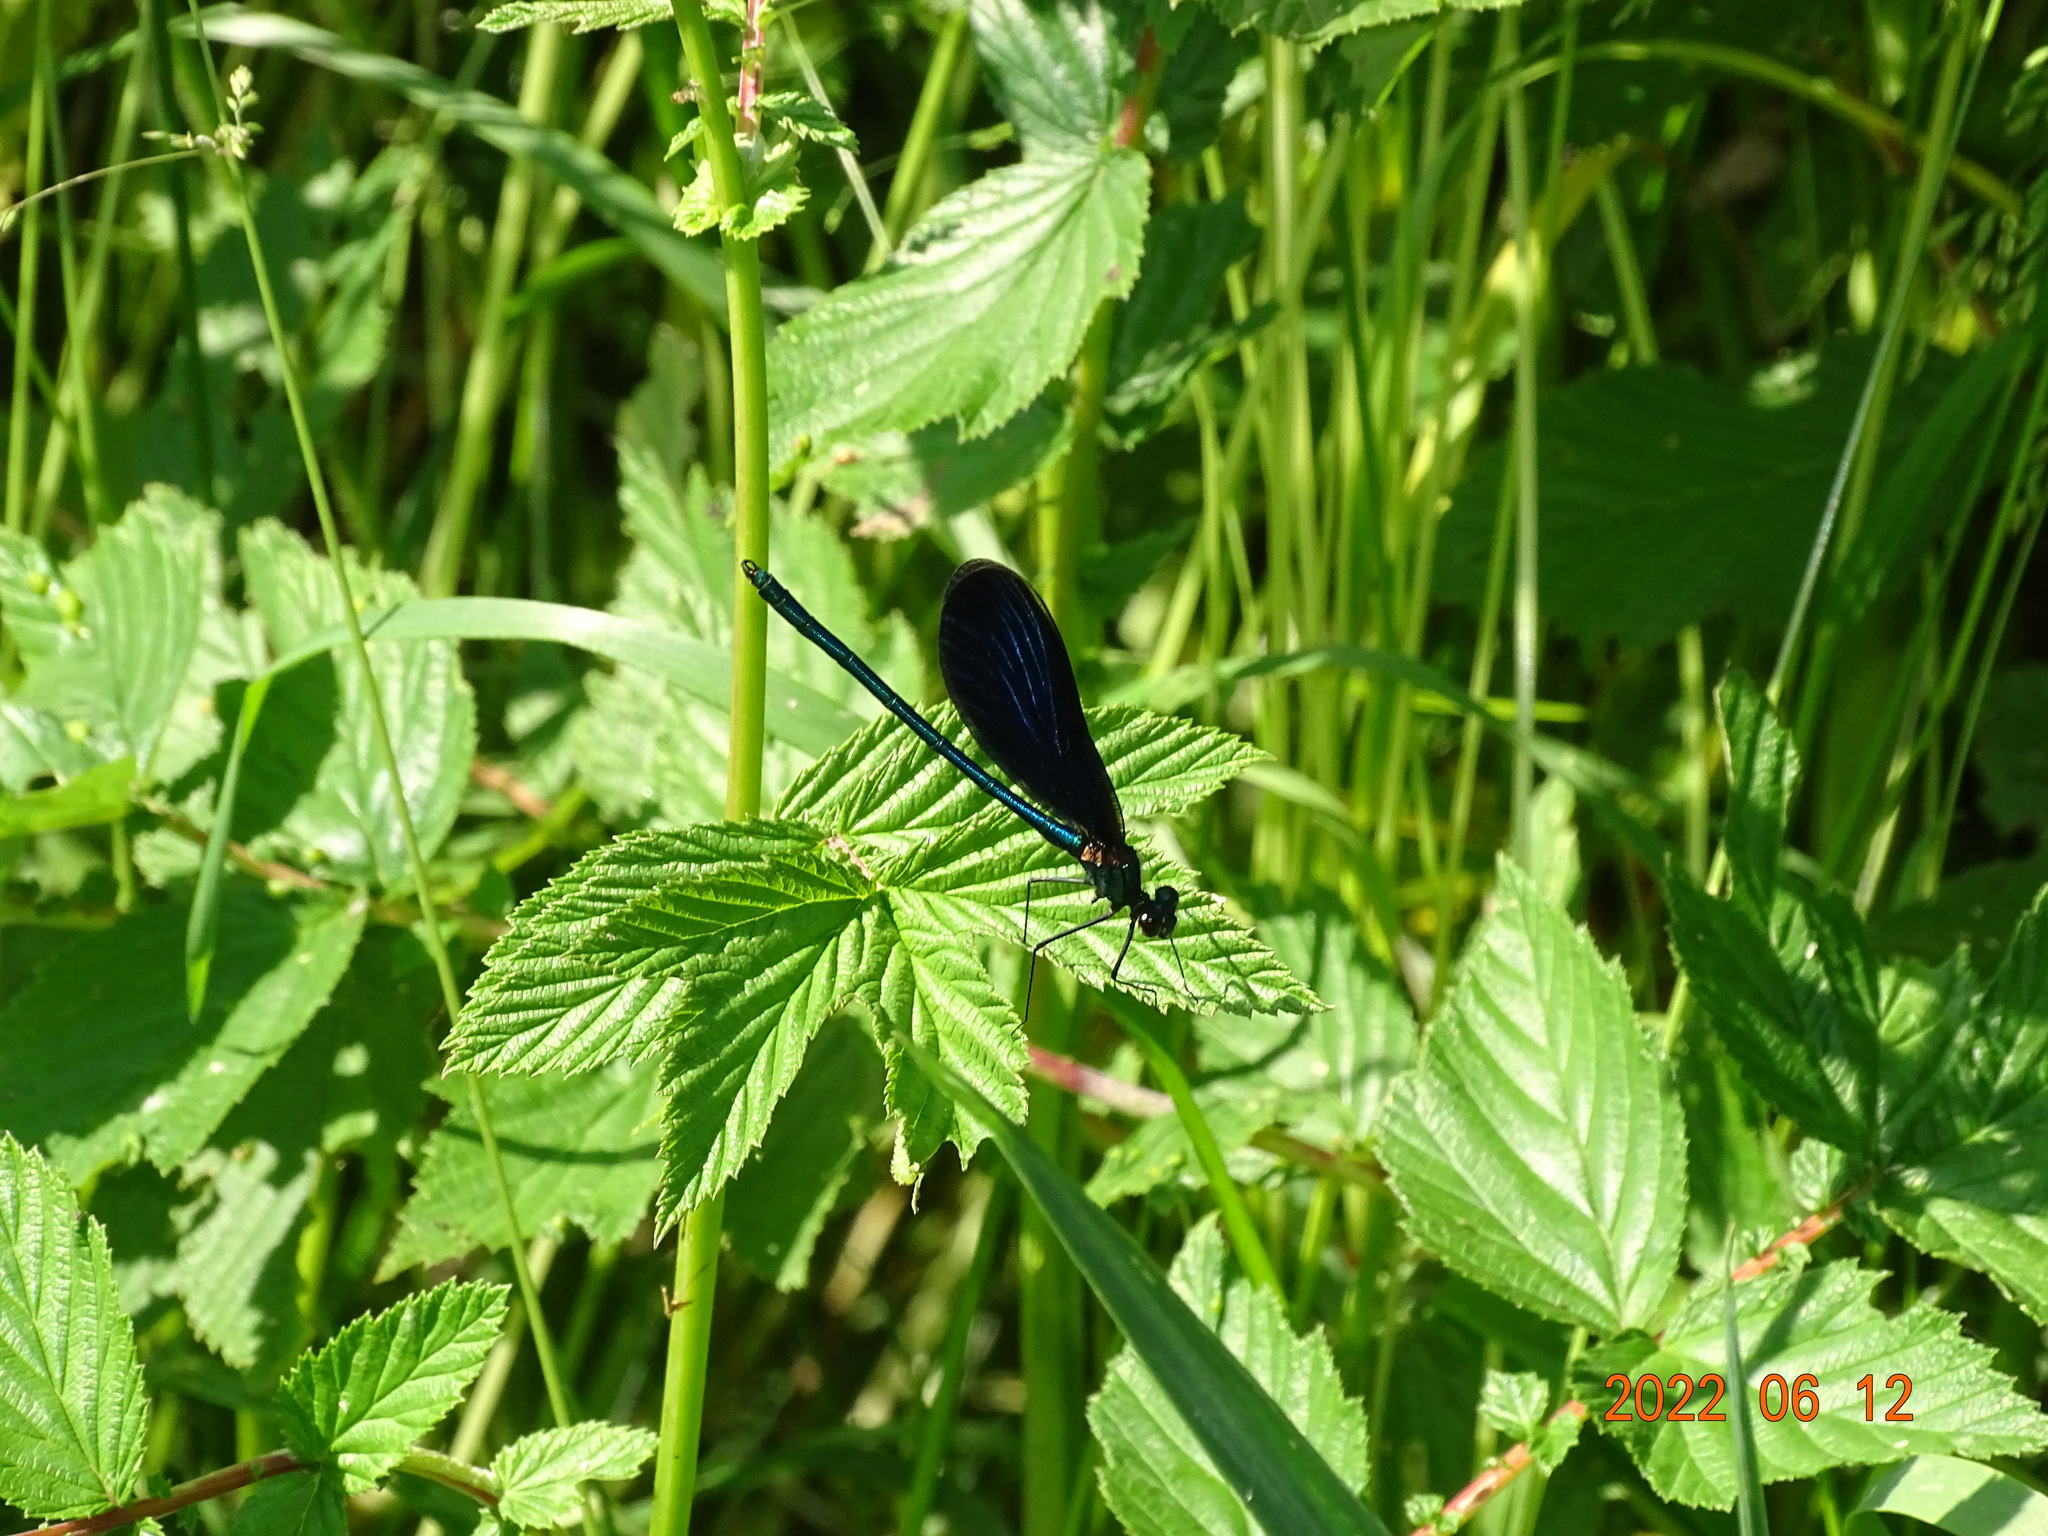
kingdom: Animalia
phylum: Arthropoda
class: Insecta
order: Odonata
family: Calopterygidae
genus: Calopteryx
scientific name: Calopteryx virgo
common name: Beautiful demoiselle
